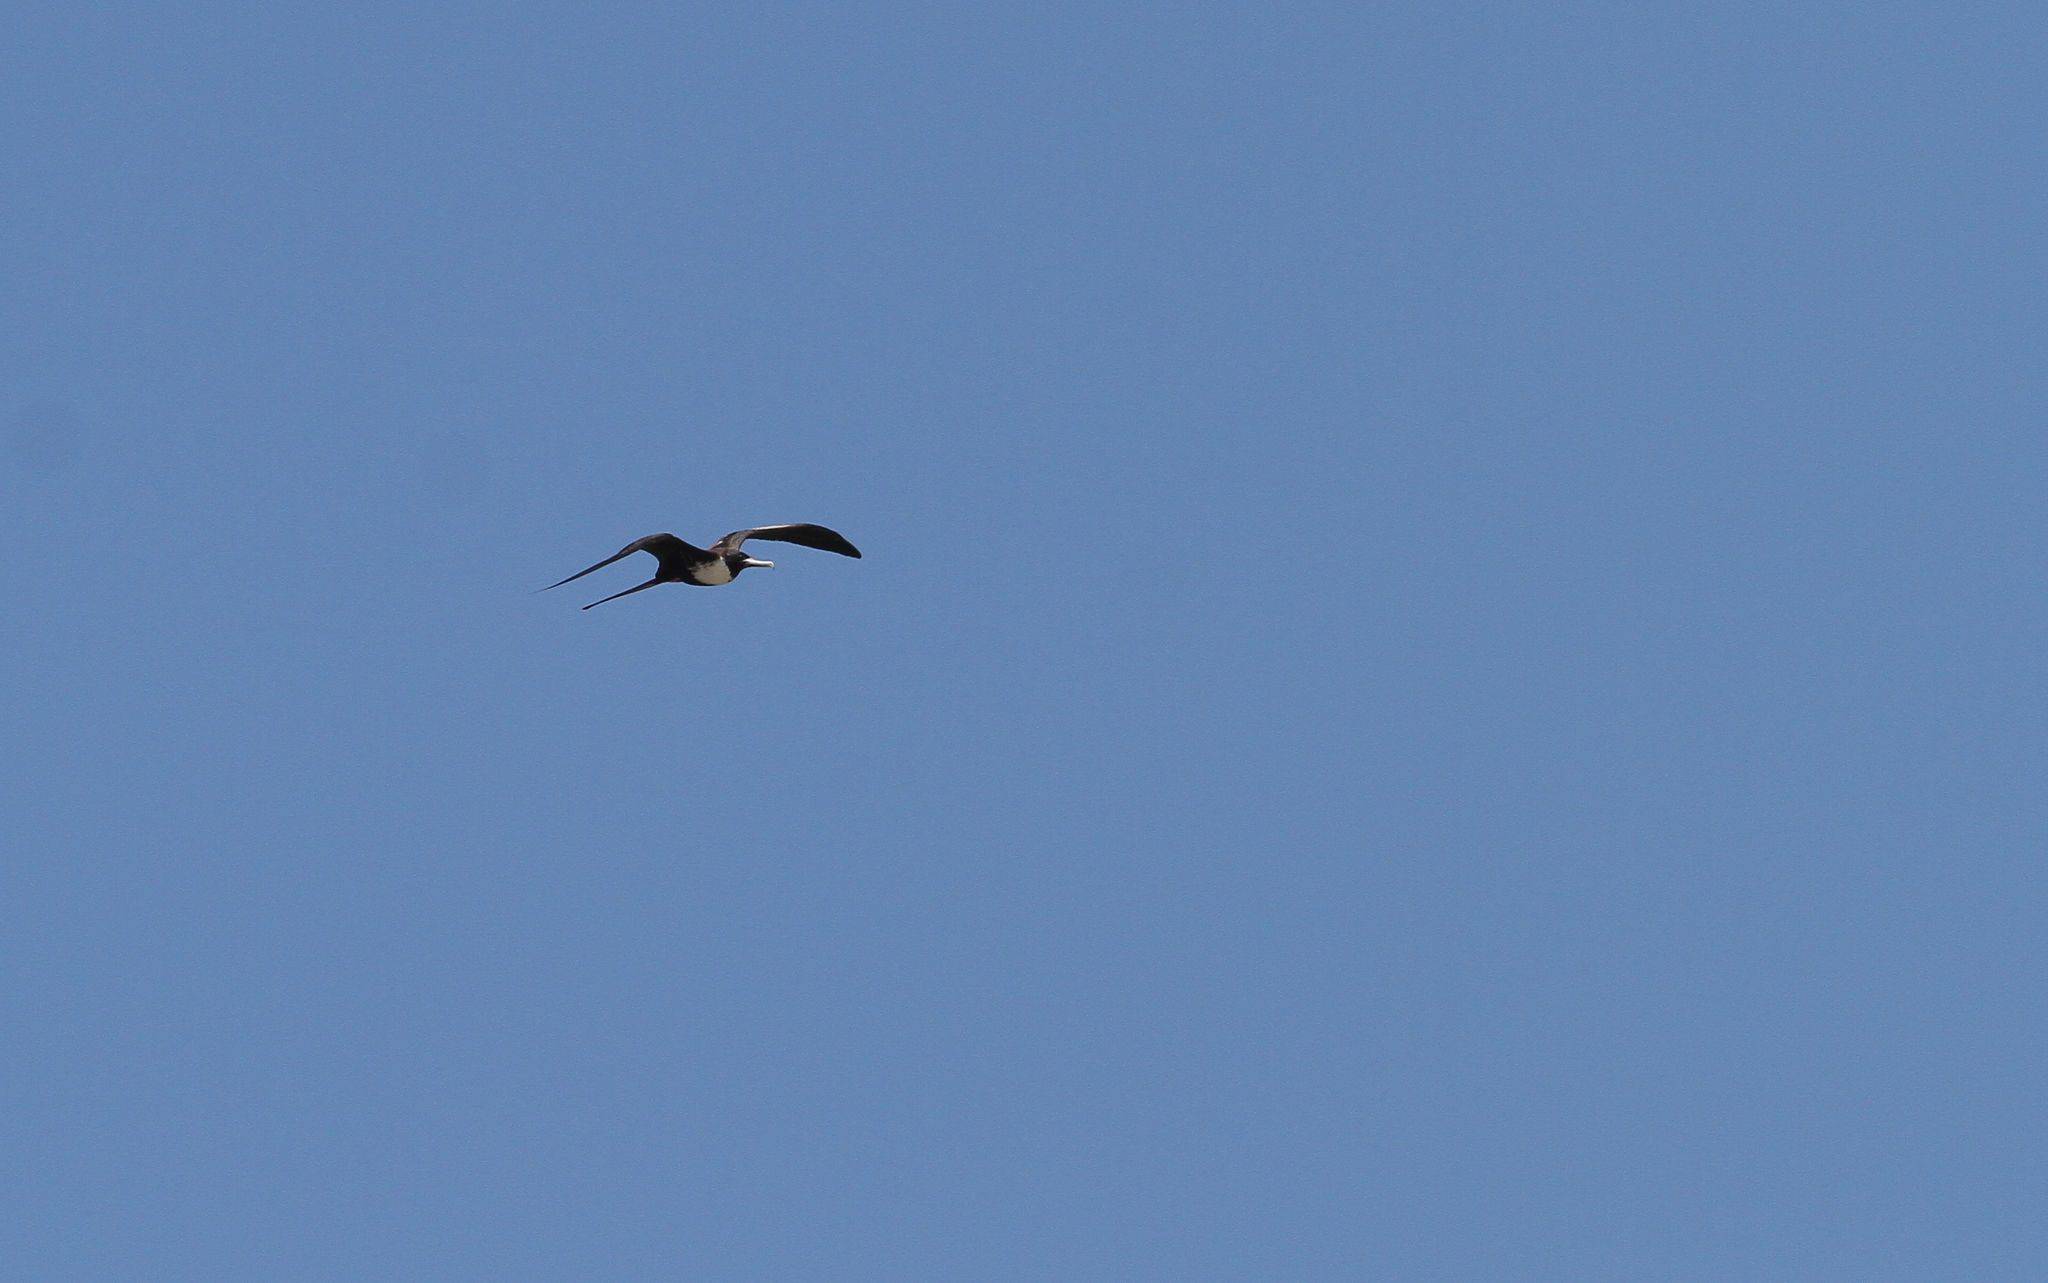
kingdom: Animalia
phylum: Chordata
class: Aves
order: Suliformes
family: Fregatidae
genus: Fregata
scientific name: Fregata magnificens
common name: Magnificent frigatebird
